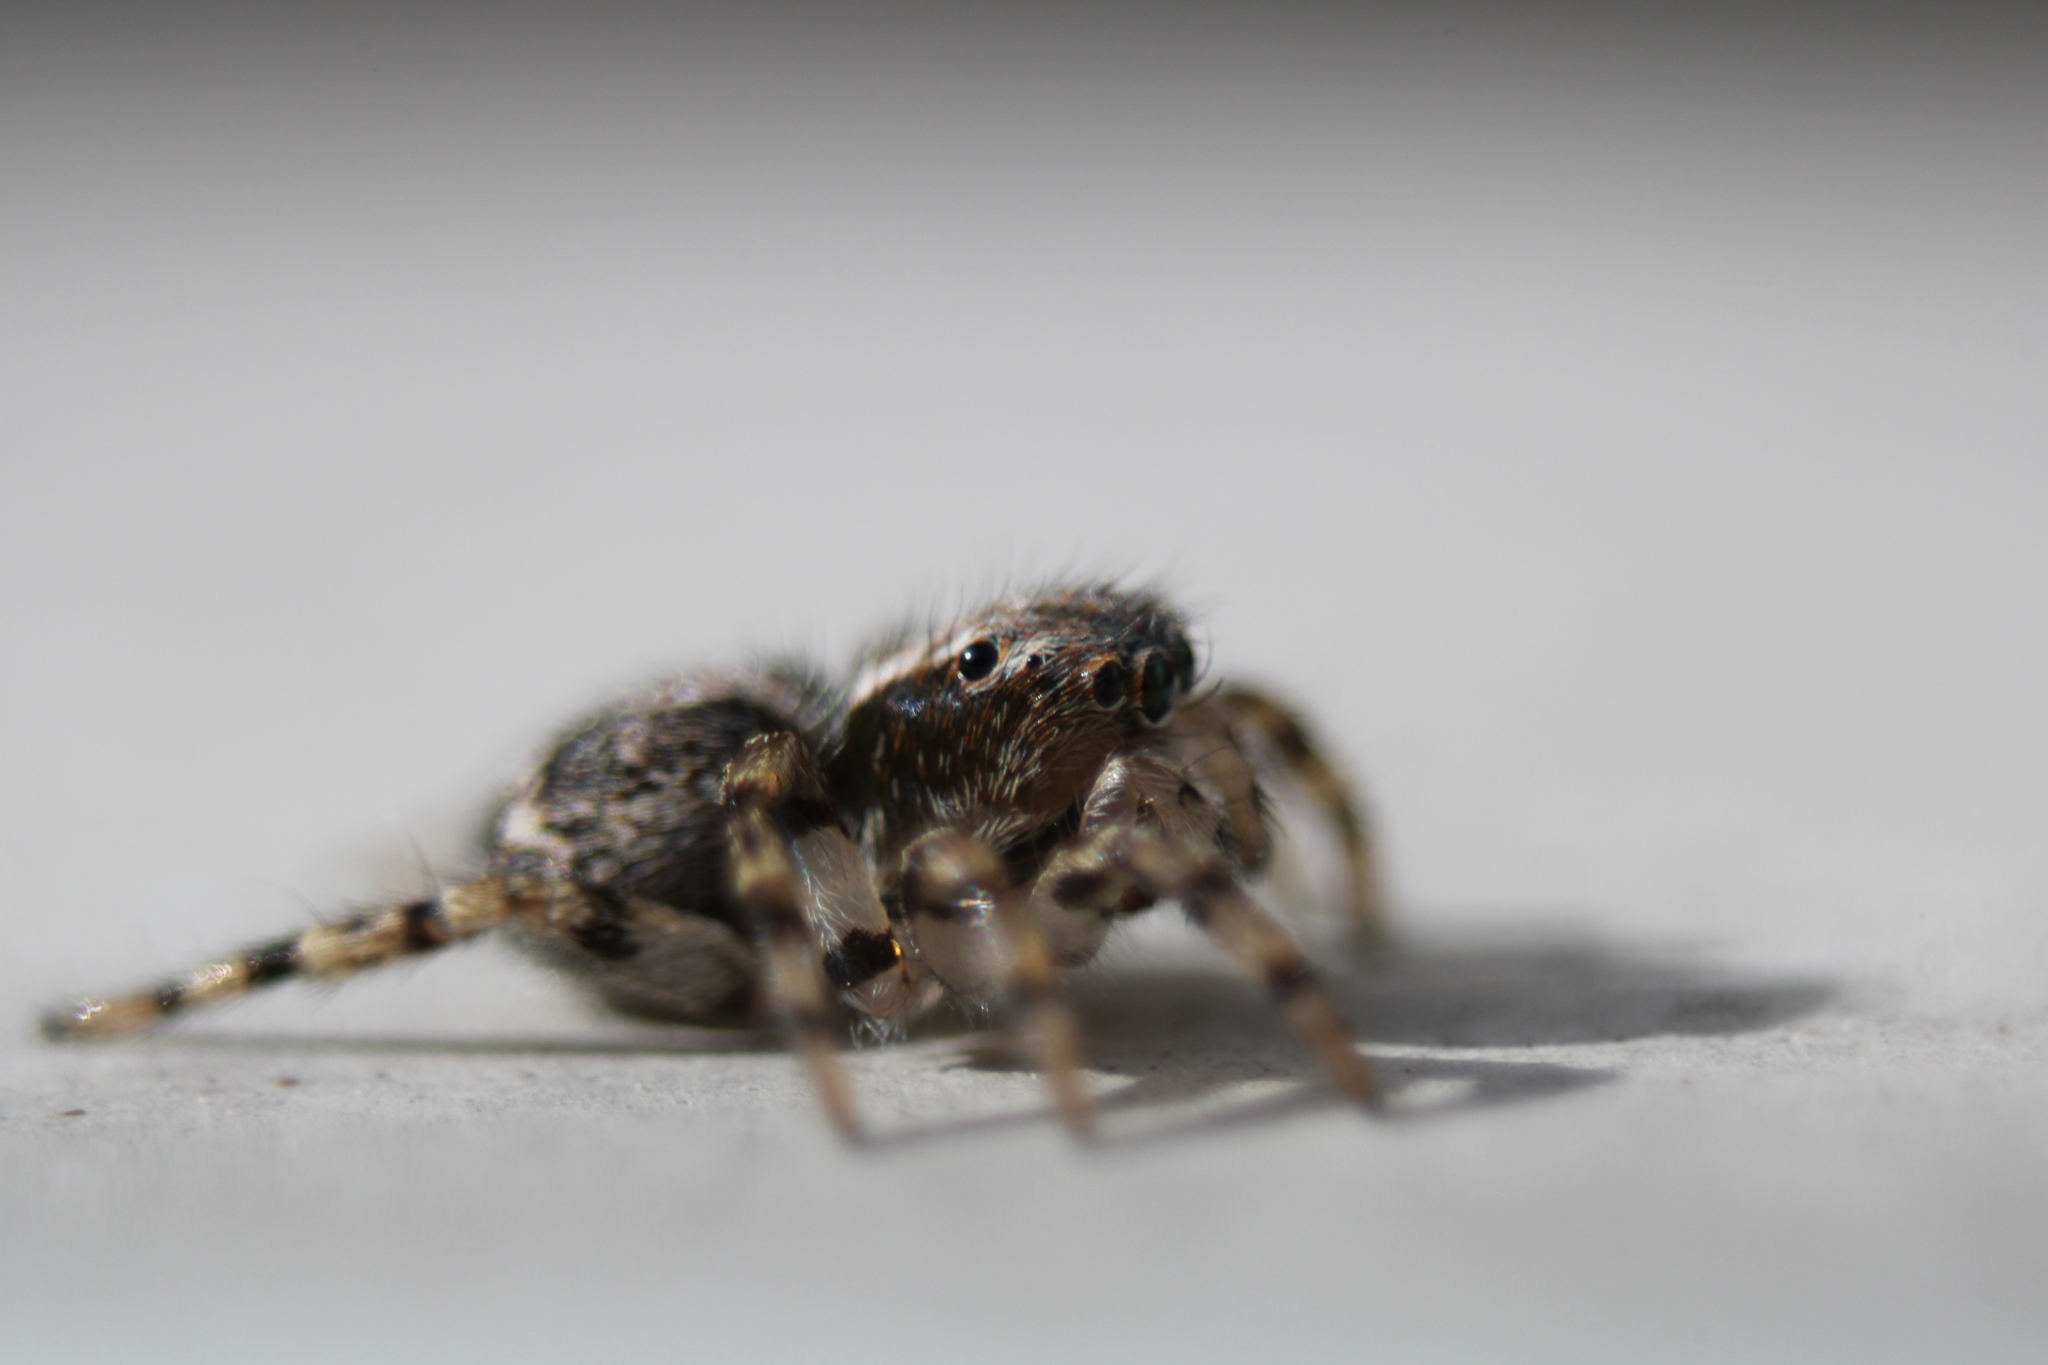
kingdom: Animalia
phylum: Arthropoda
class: Arachnida
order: Araneae
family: Salticidae
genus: Naphrys
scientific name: Naphrys pulex
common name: Flea jumping spider
